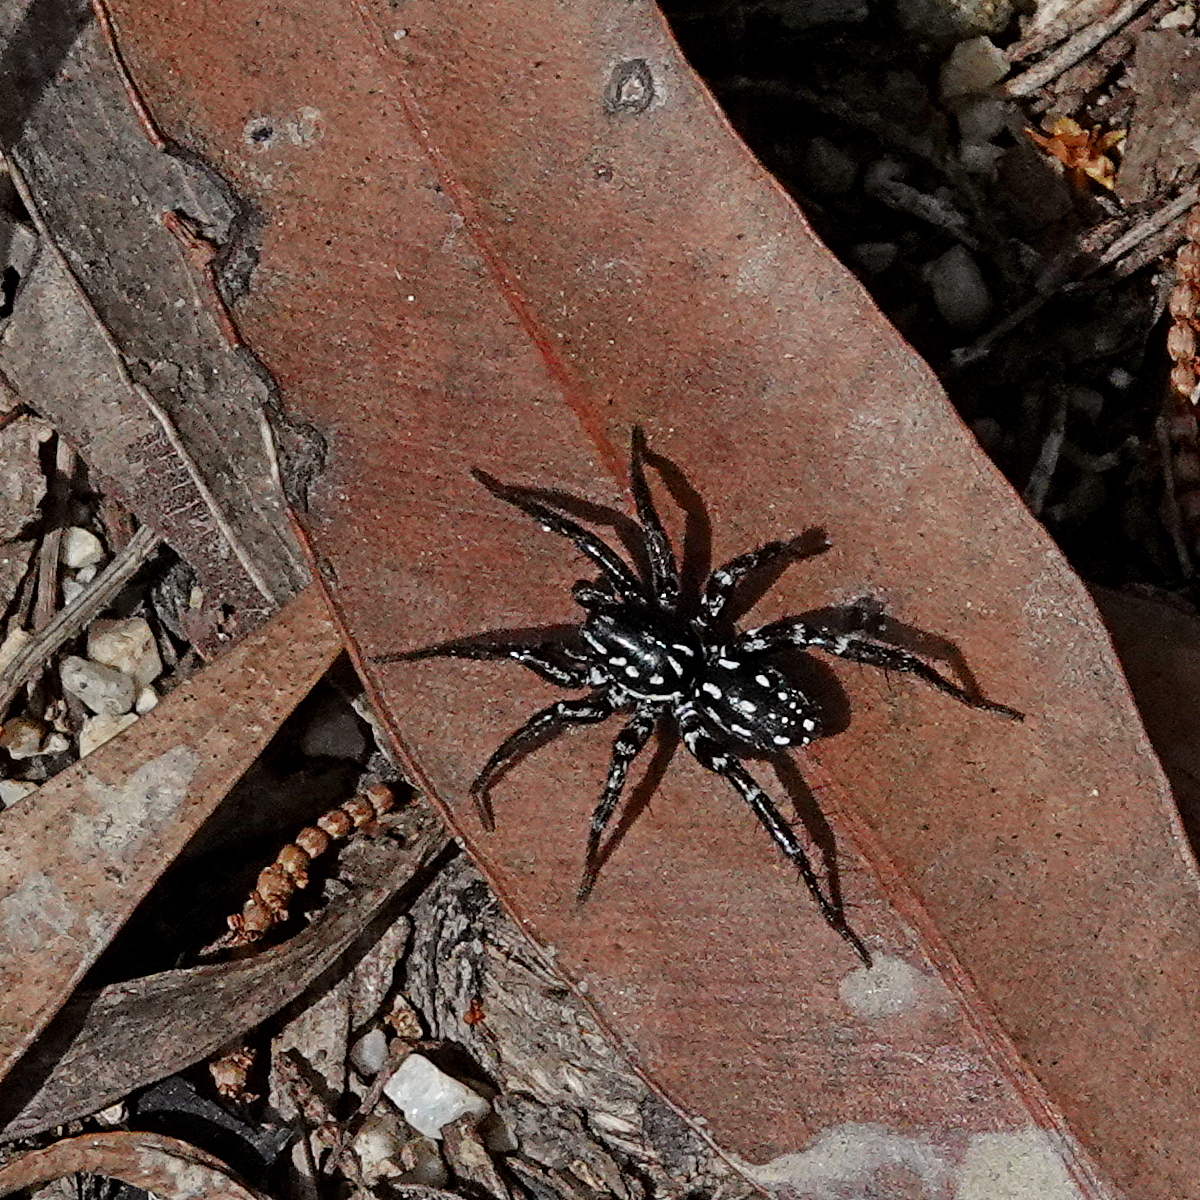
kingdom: Animalia
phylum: Arthropoda
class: Arachnida
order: Araneae
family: Corinnidae
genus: Nyssus
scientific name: Nyssus albopunctatus
